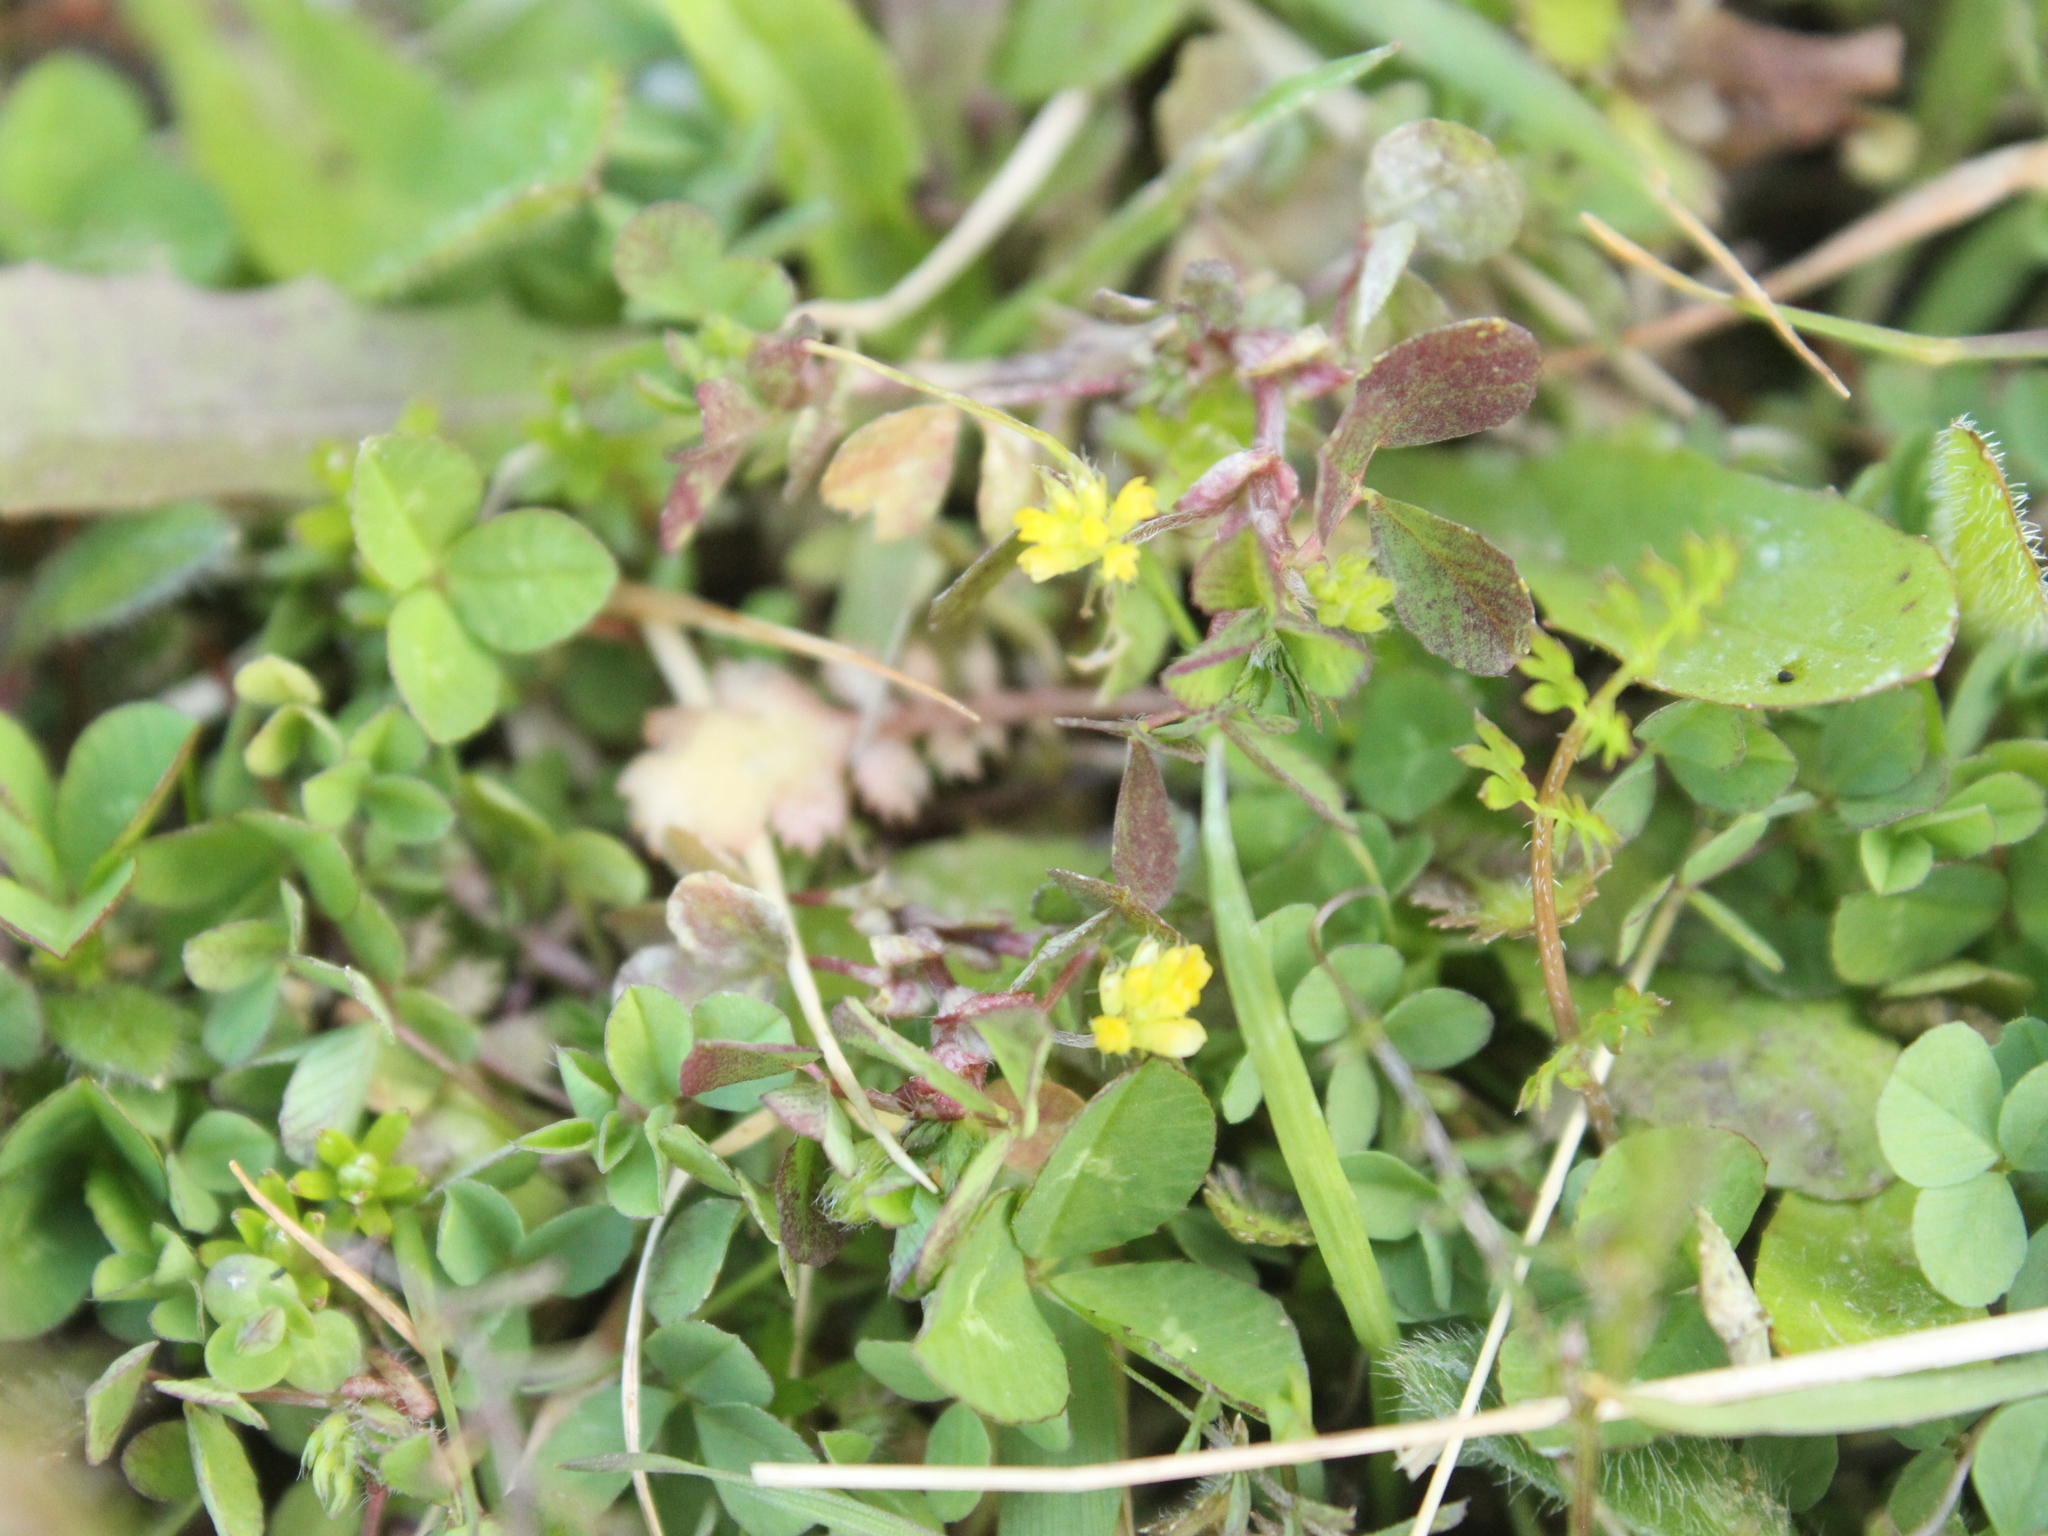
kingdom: Plantae
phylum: Tracheophyta
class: Magnoliopsida
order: Fabales
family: Fabaceae
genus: Trifolium
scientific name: Trifolium dubium
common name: Suckling clover
